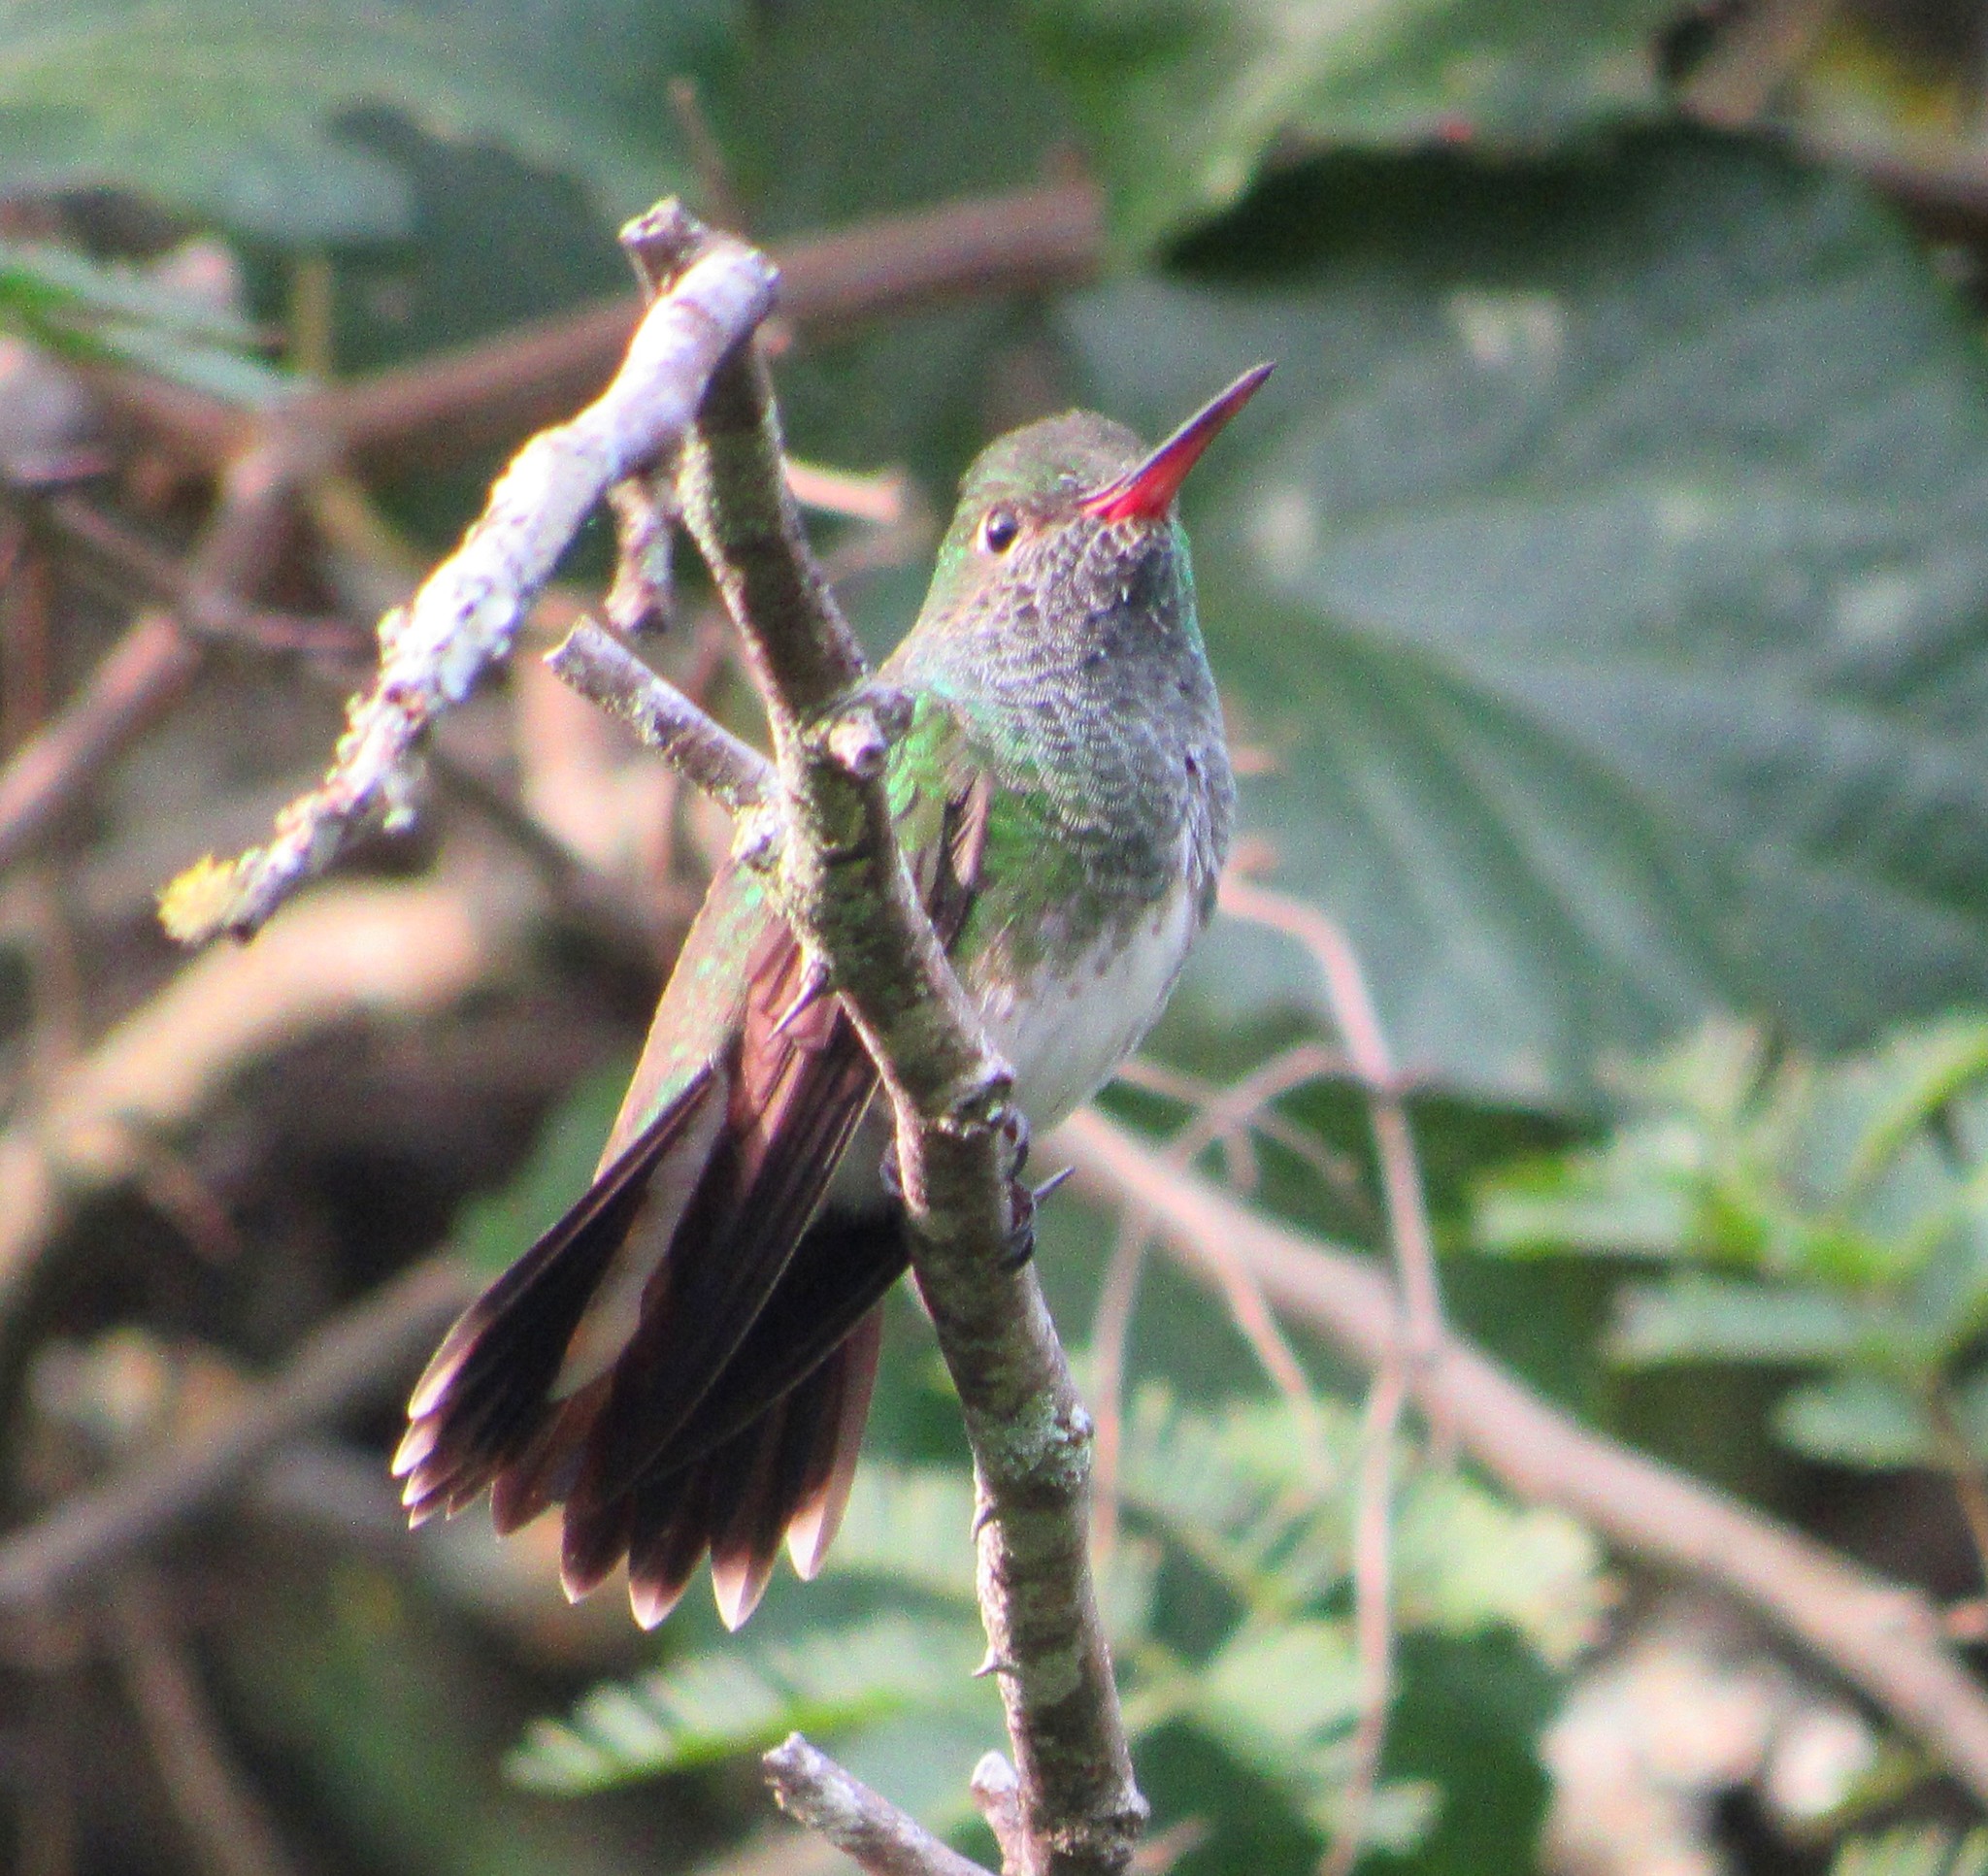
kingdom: Animalia
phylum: Chordata
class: Aves
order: Apodiformes
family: Trochilidae
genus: Chionomesa
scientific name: Chionomesa fimbriata
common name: Glittering-throated emerald
